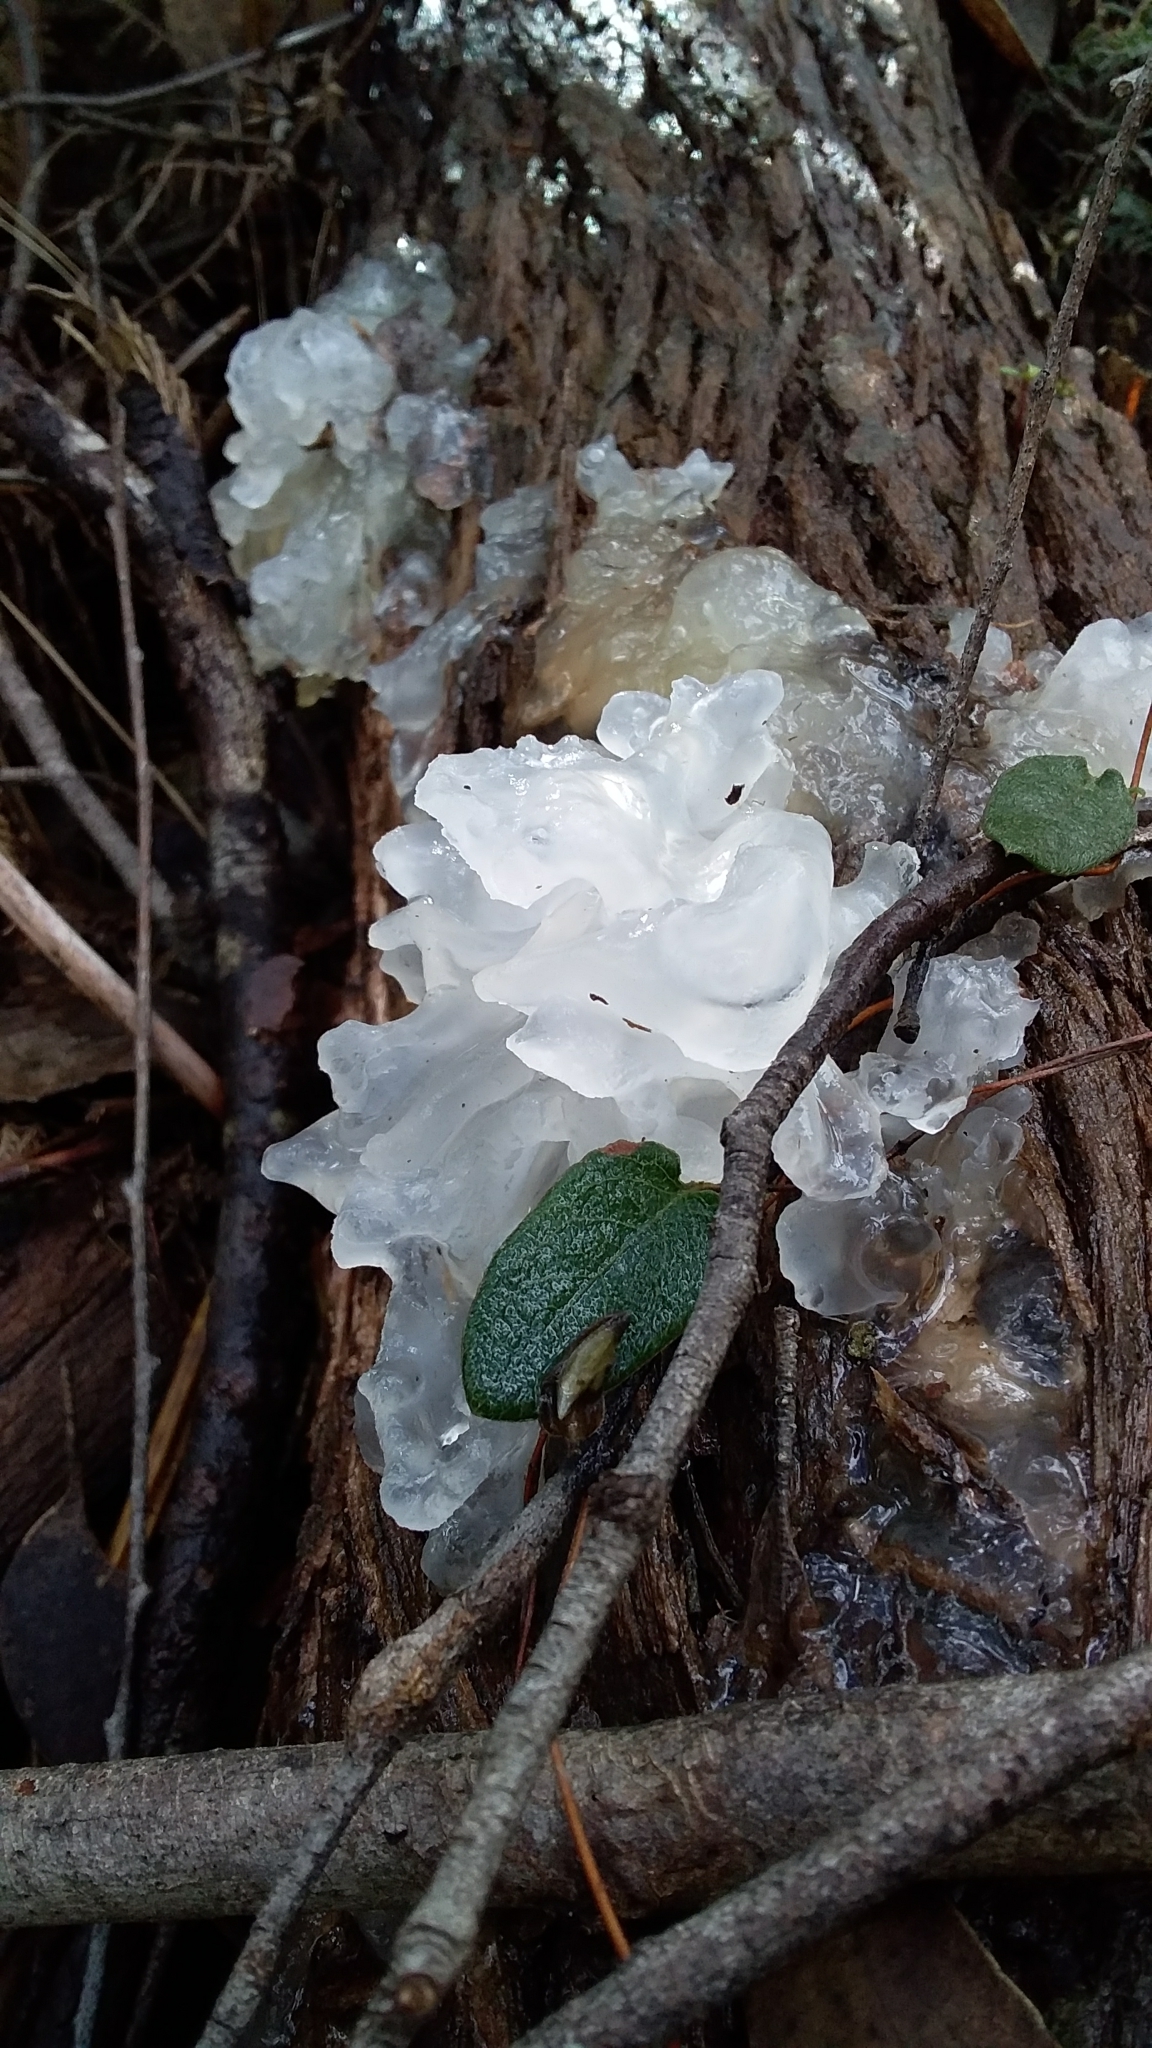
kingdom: Fungi
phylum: Basidiomycota
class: Tremellomycetes
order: Tremellales
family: Tremellaceae
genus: Tremella
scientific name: Tremella fuciformis
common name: Snow fungus
